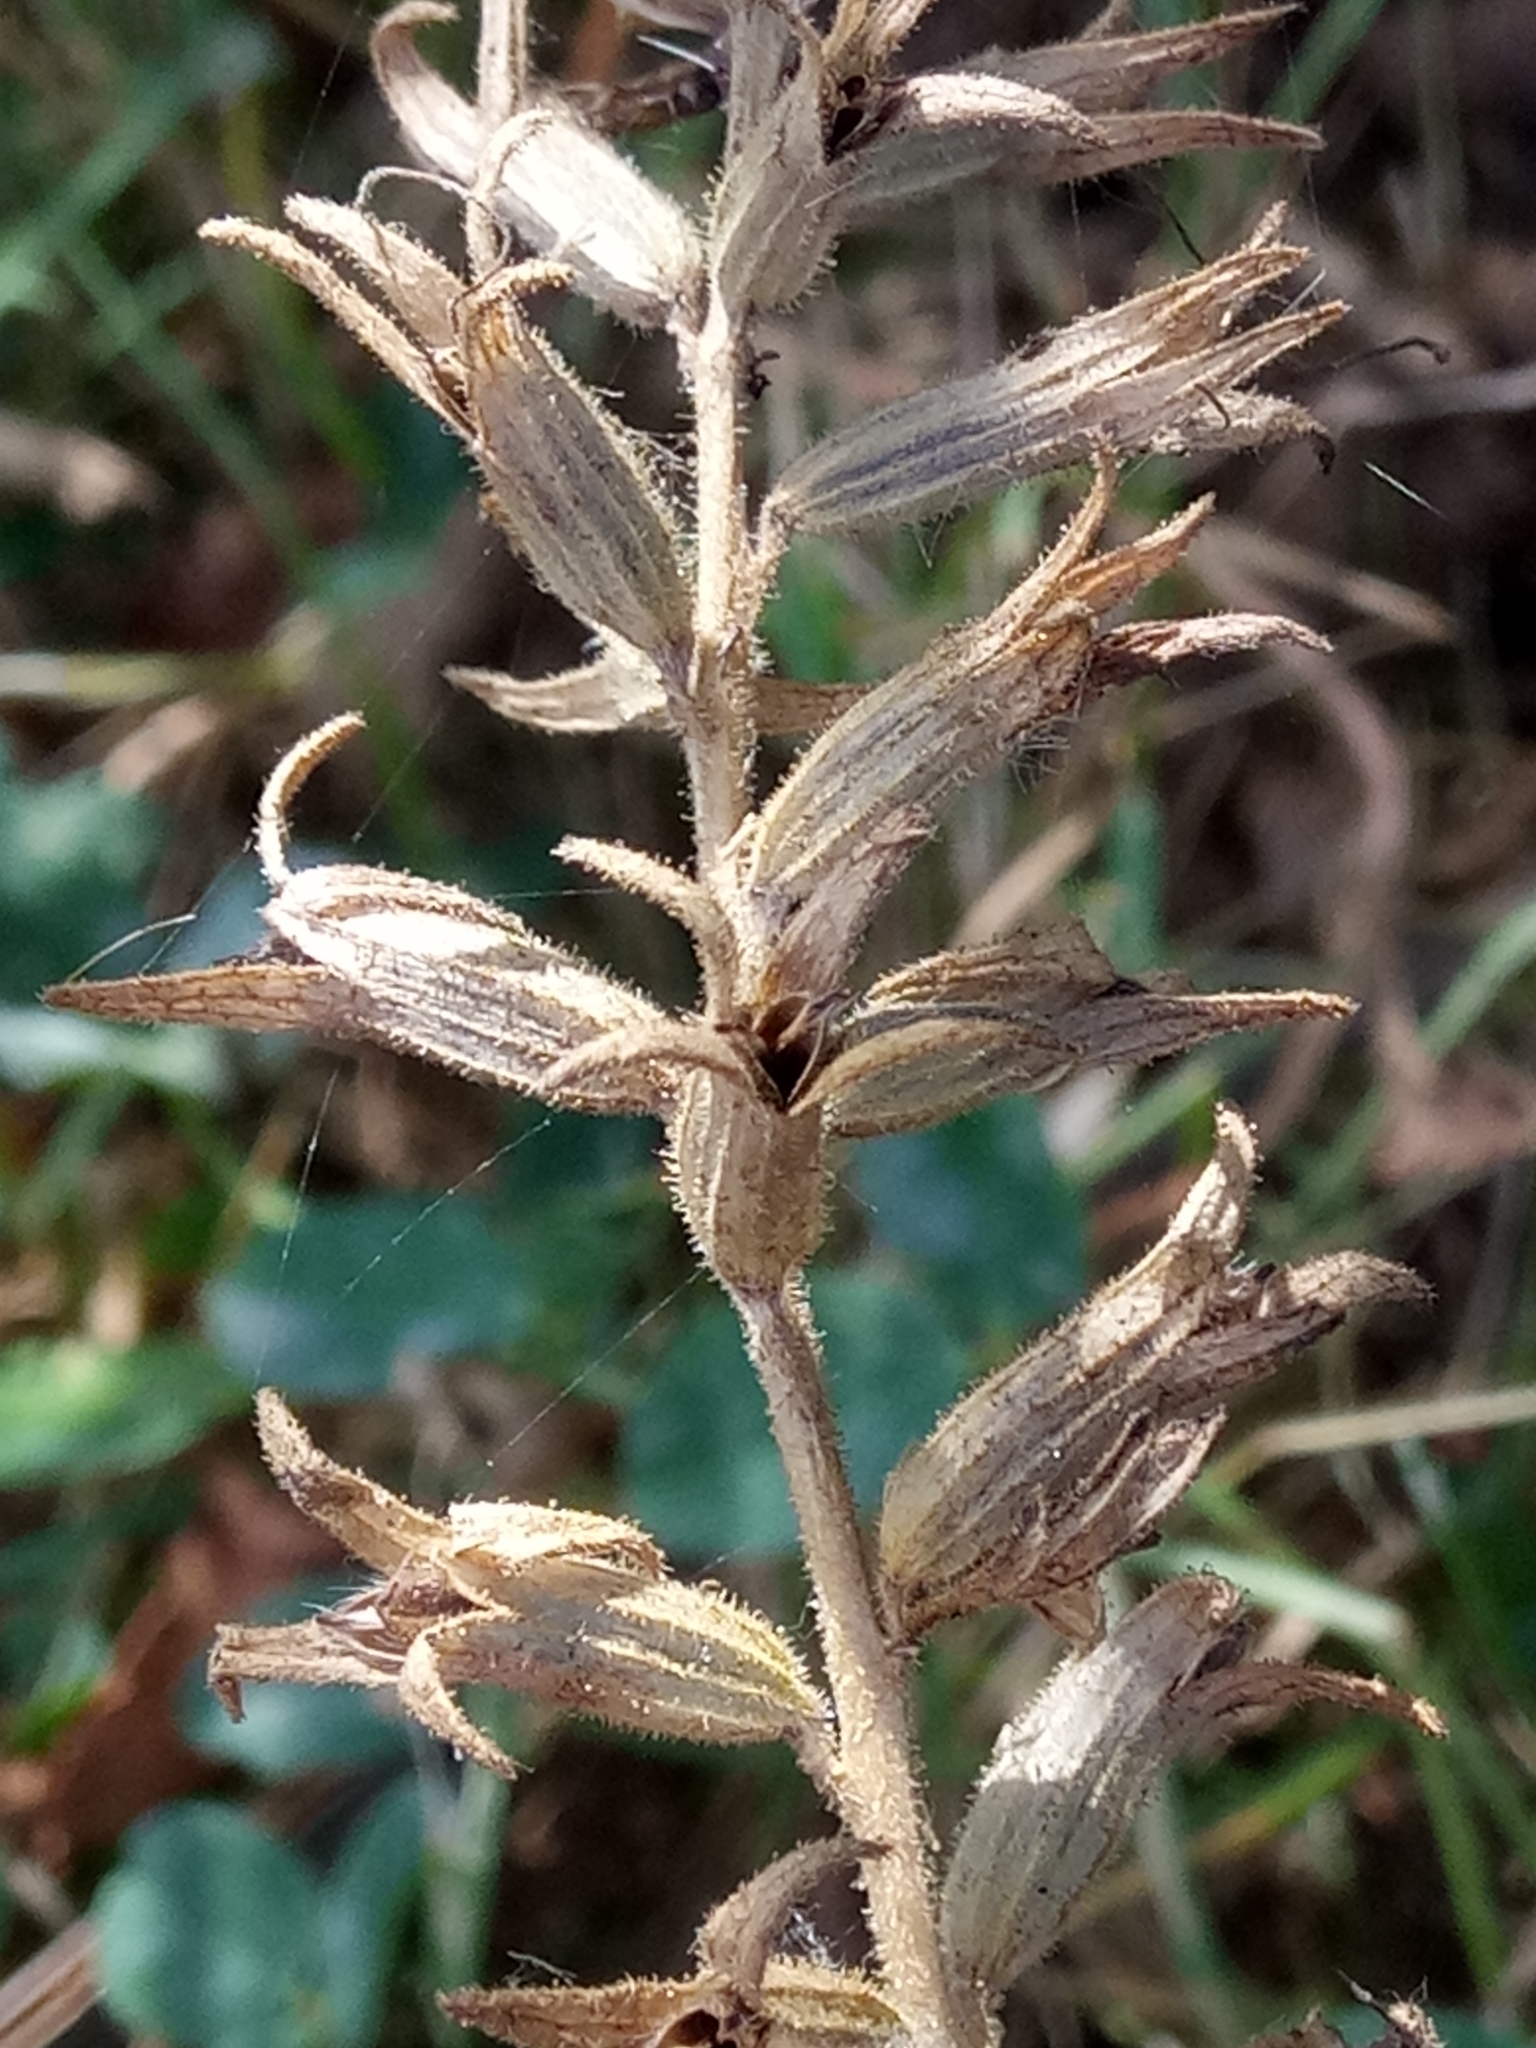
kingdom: Plantae
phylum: Tracheophyta
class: Magnoliopsida
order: Lamiales
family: Orobanchaceae
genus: Bellardia
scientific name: Bellardia viscosa
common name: Sticky parentucellia
